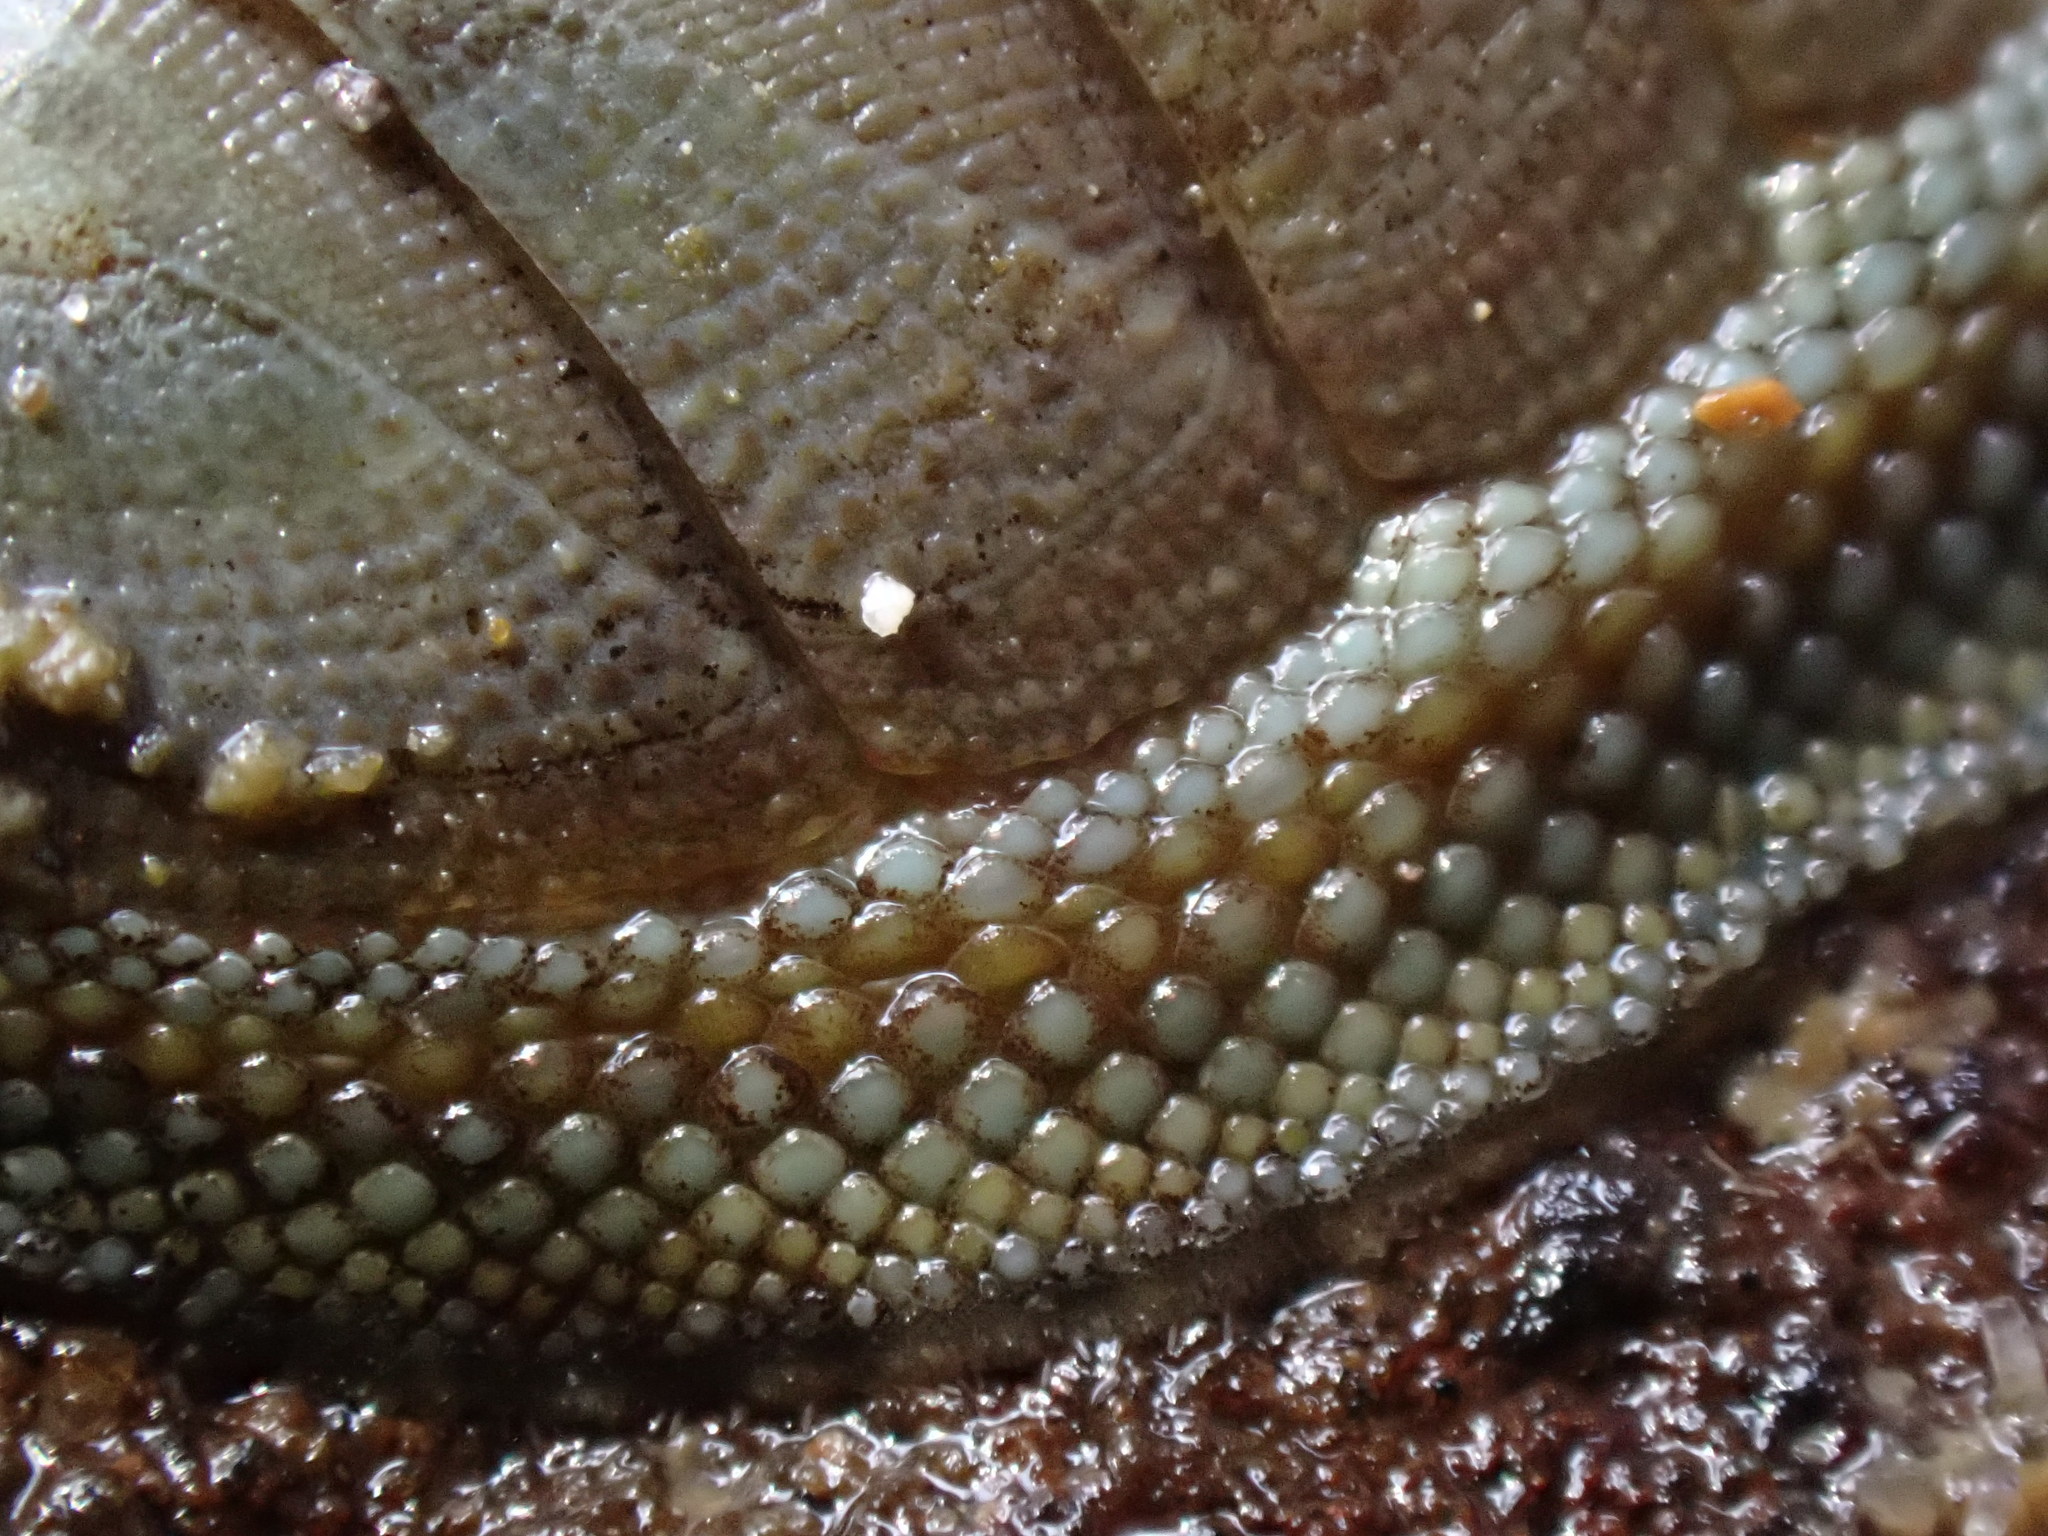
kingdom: Animalia
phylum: Mollusca
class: Polyplacophora
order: Chitonida
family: Chitonidae
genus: Sypharochiton
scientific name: Sypharochiton pelliserpentis
